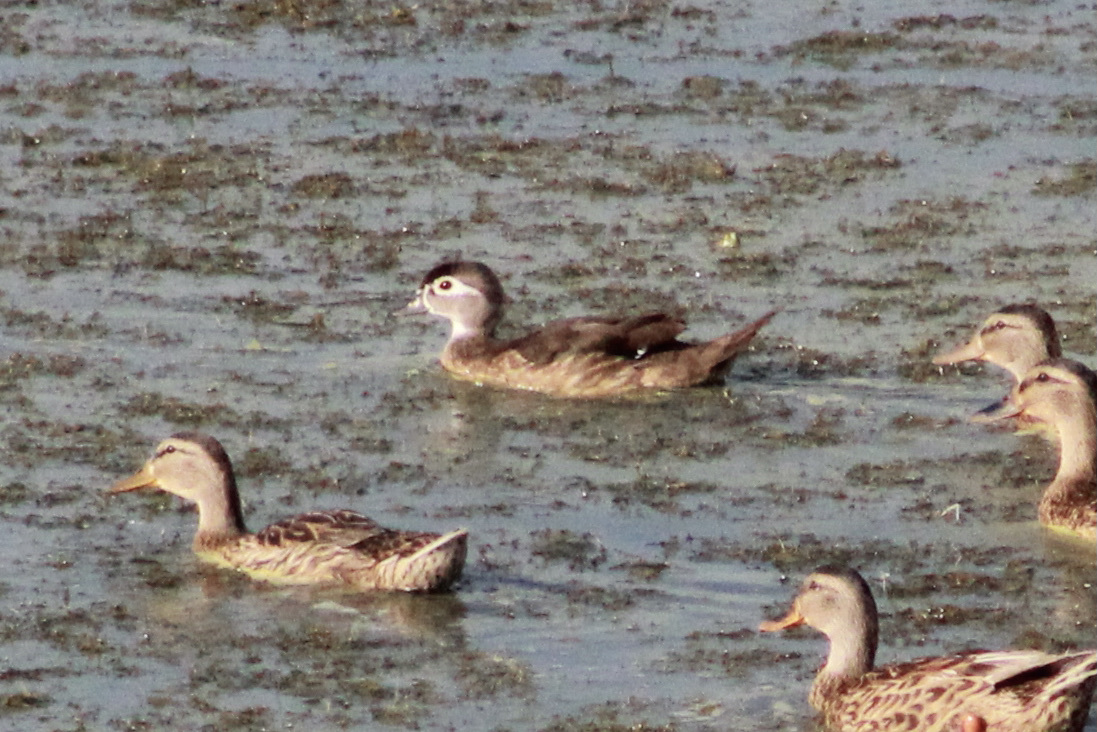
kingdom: Animalia
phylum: Chordata
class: Aves
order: Anseriformes
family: Anatidae
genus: Aix
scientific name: Aix sponsa
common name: Wood duck
